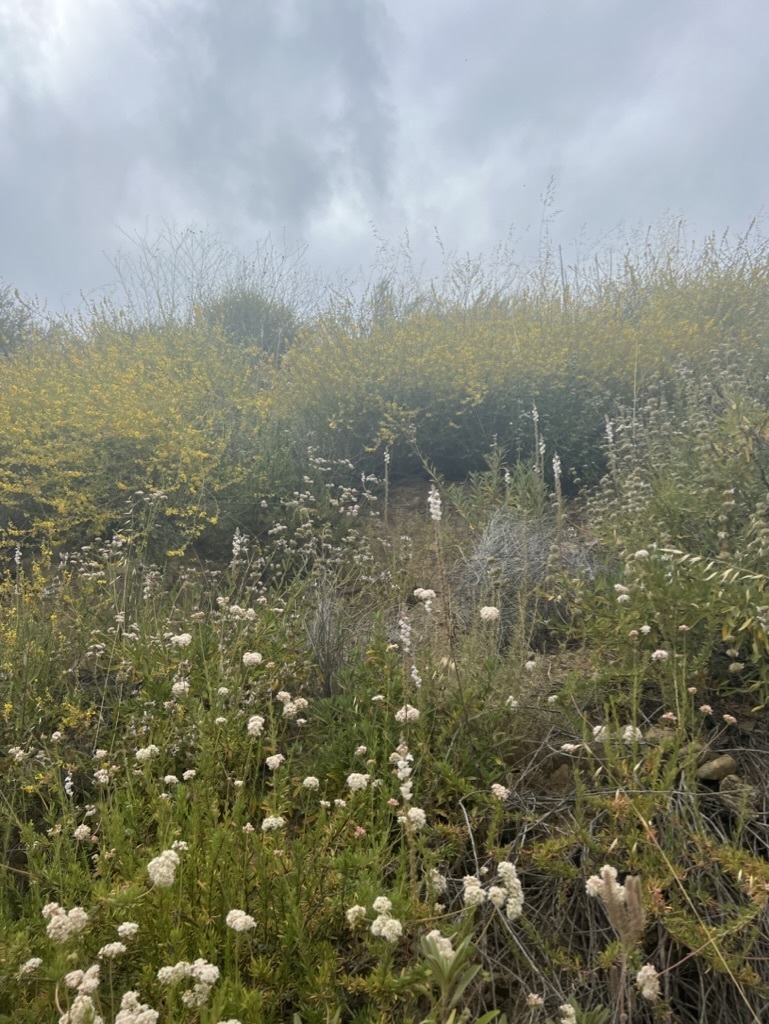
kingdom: Plantae
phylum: Tracheophyta
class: Magnoliopsida
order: Lamiales
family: Plantaginaceae
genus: Sairocarpus
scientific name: Sairocarpus coulterianus
